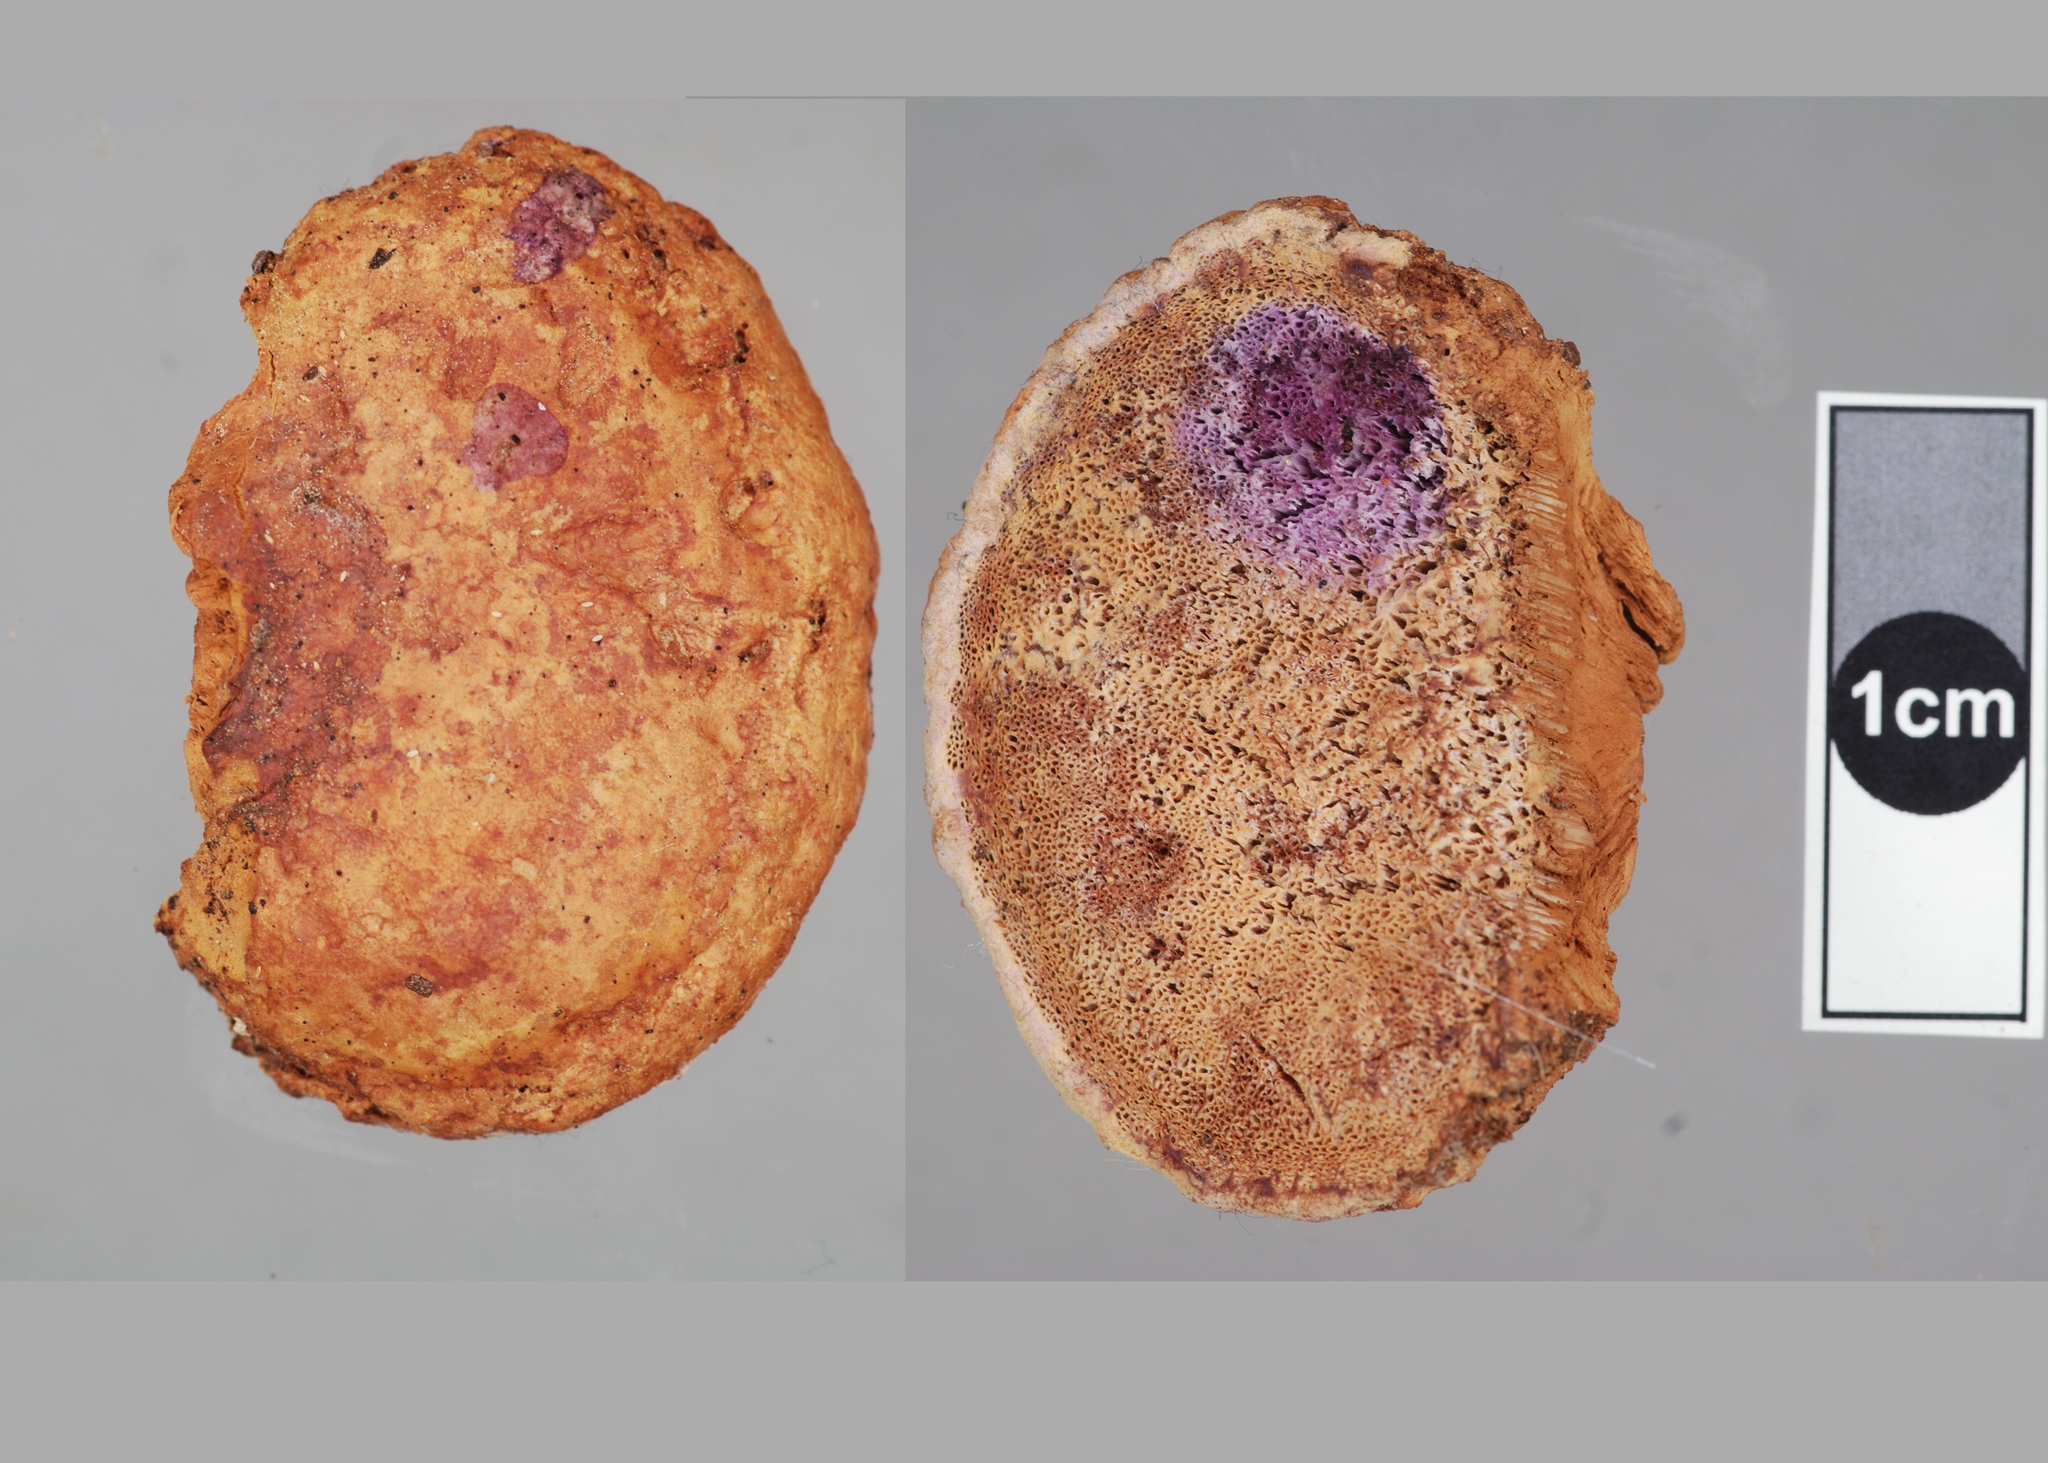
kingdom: Fungi
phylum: Basidiomycota
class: Agaricomycetes
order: Polyporales
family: Phanerochaetaceae
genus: Hapalopilus
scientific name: Hapalopilus rutilans
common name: Tender nesting polypore
